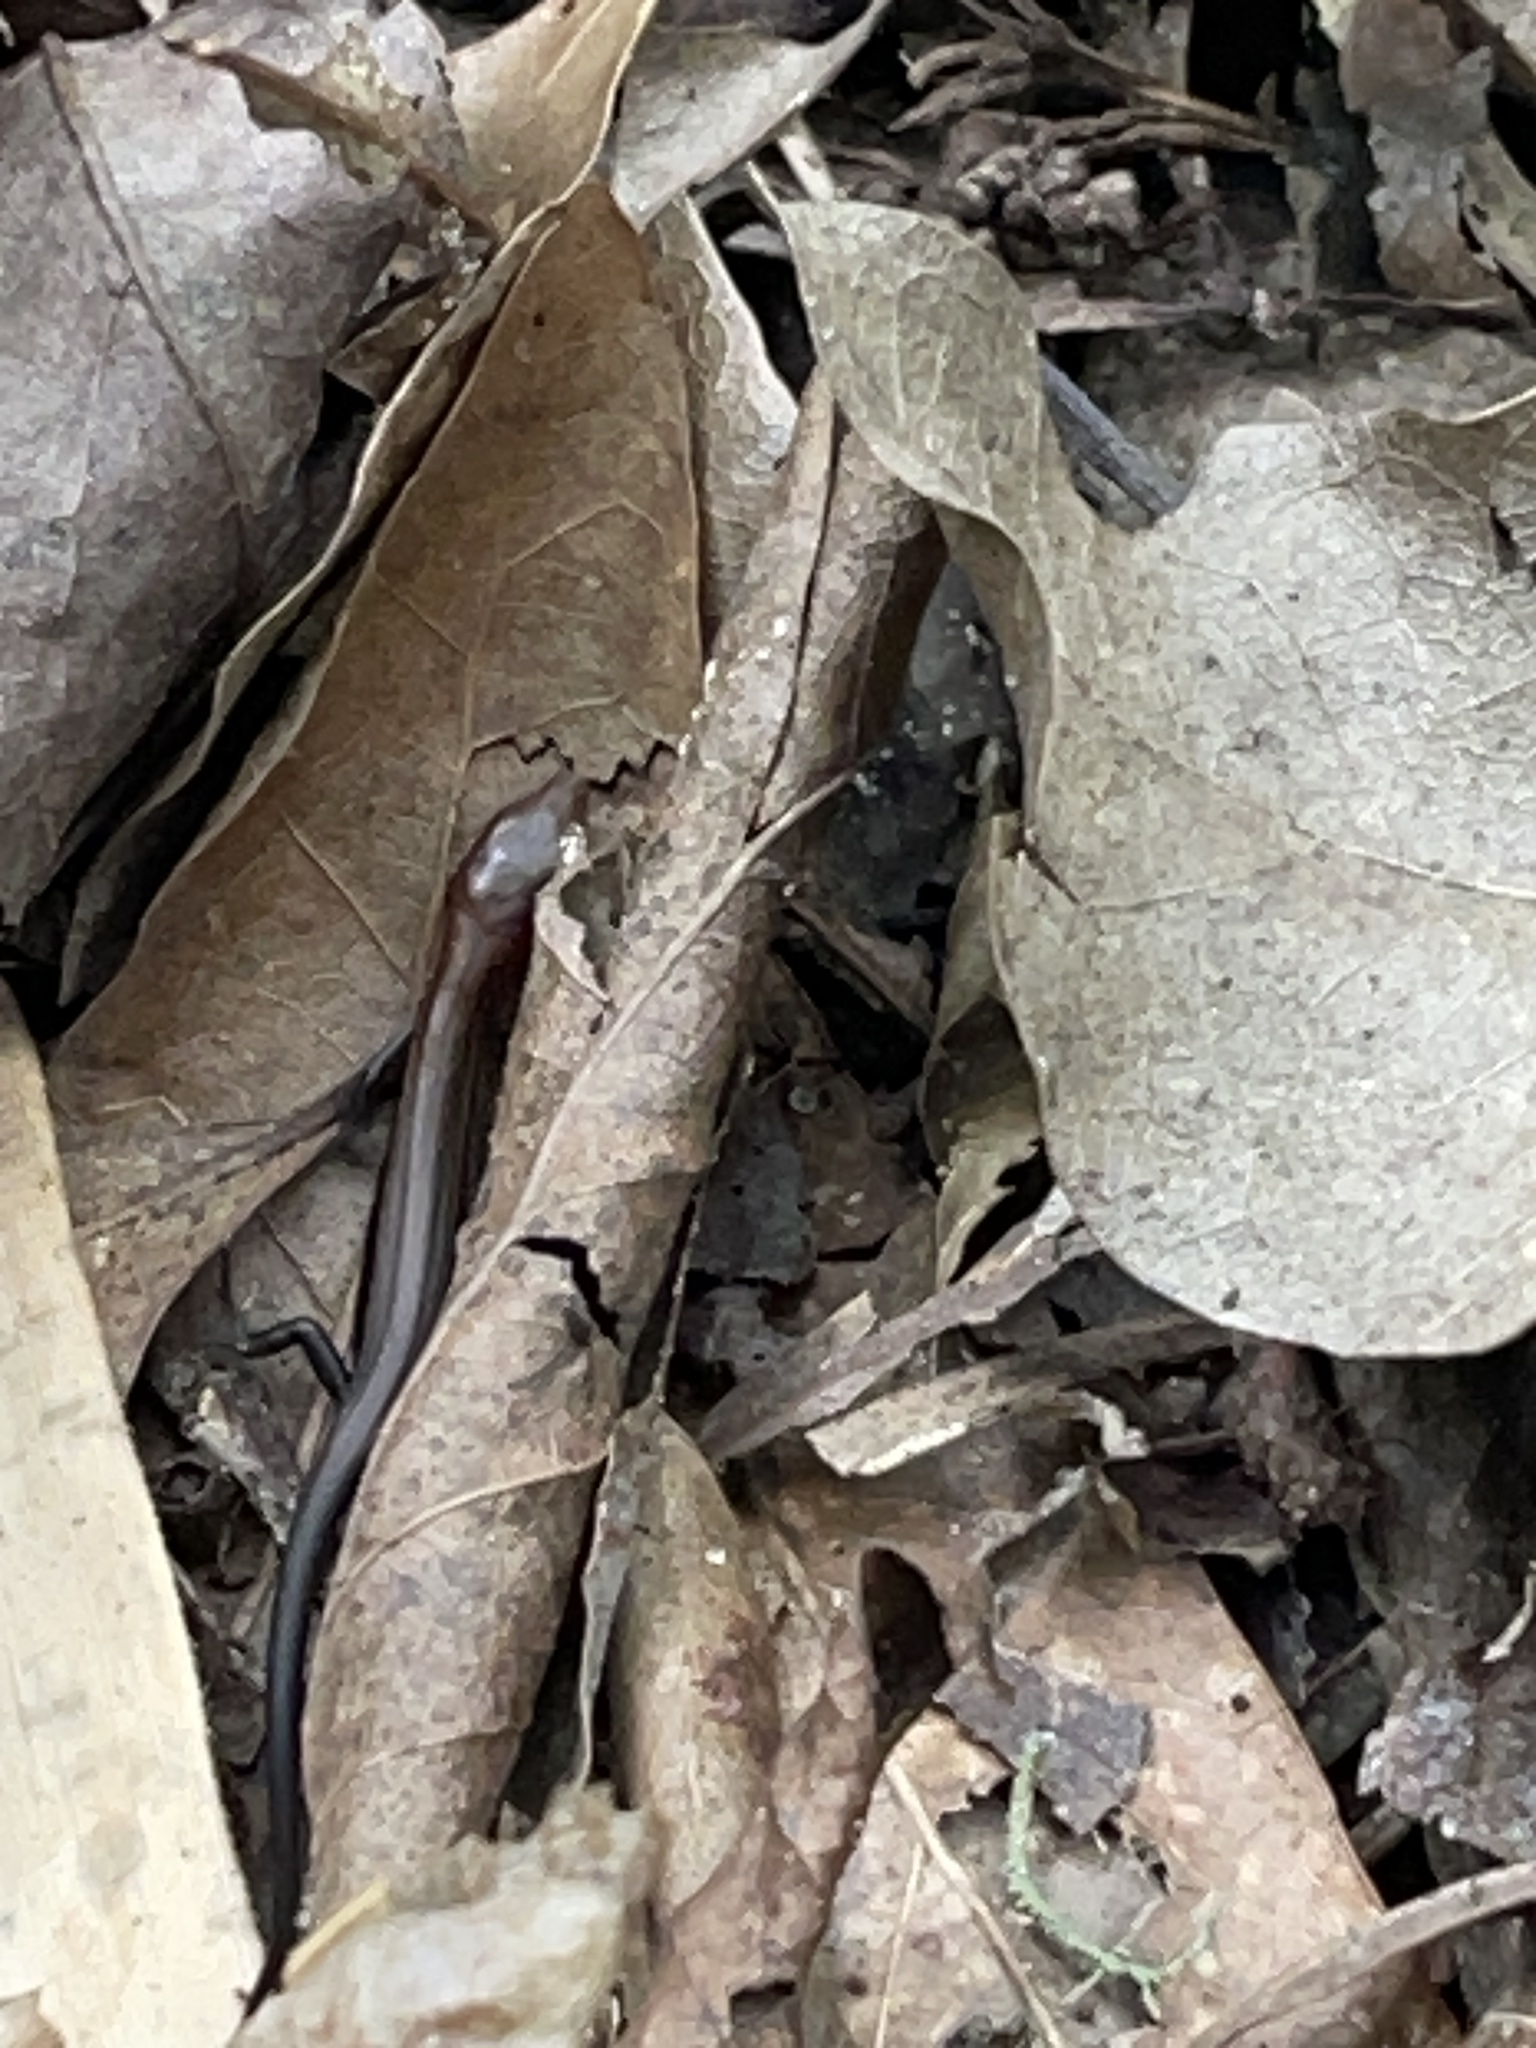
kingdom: Animalia
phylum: Chordata
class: Squamata
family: Scincidae
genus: Scincella
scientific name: Scincella lateralis
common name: Ground skink
